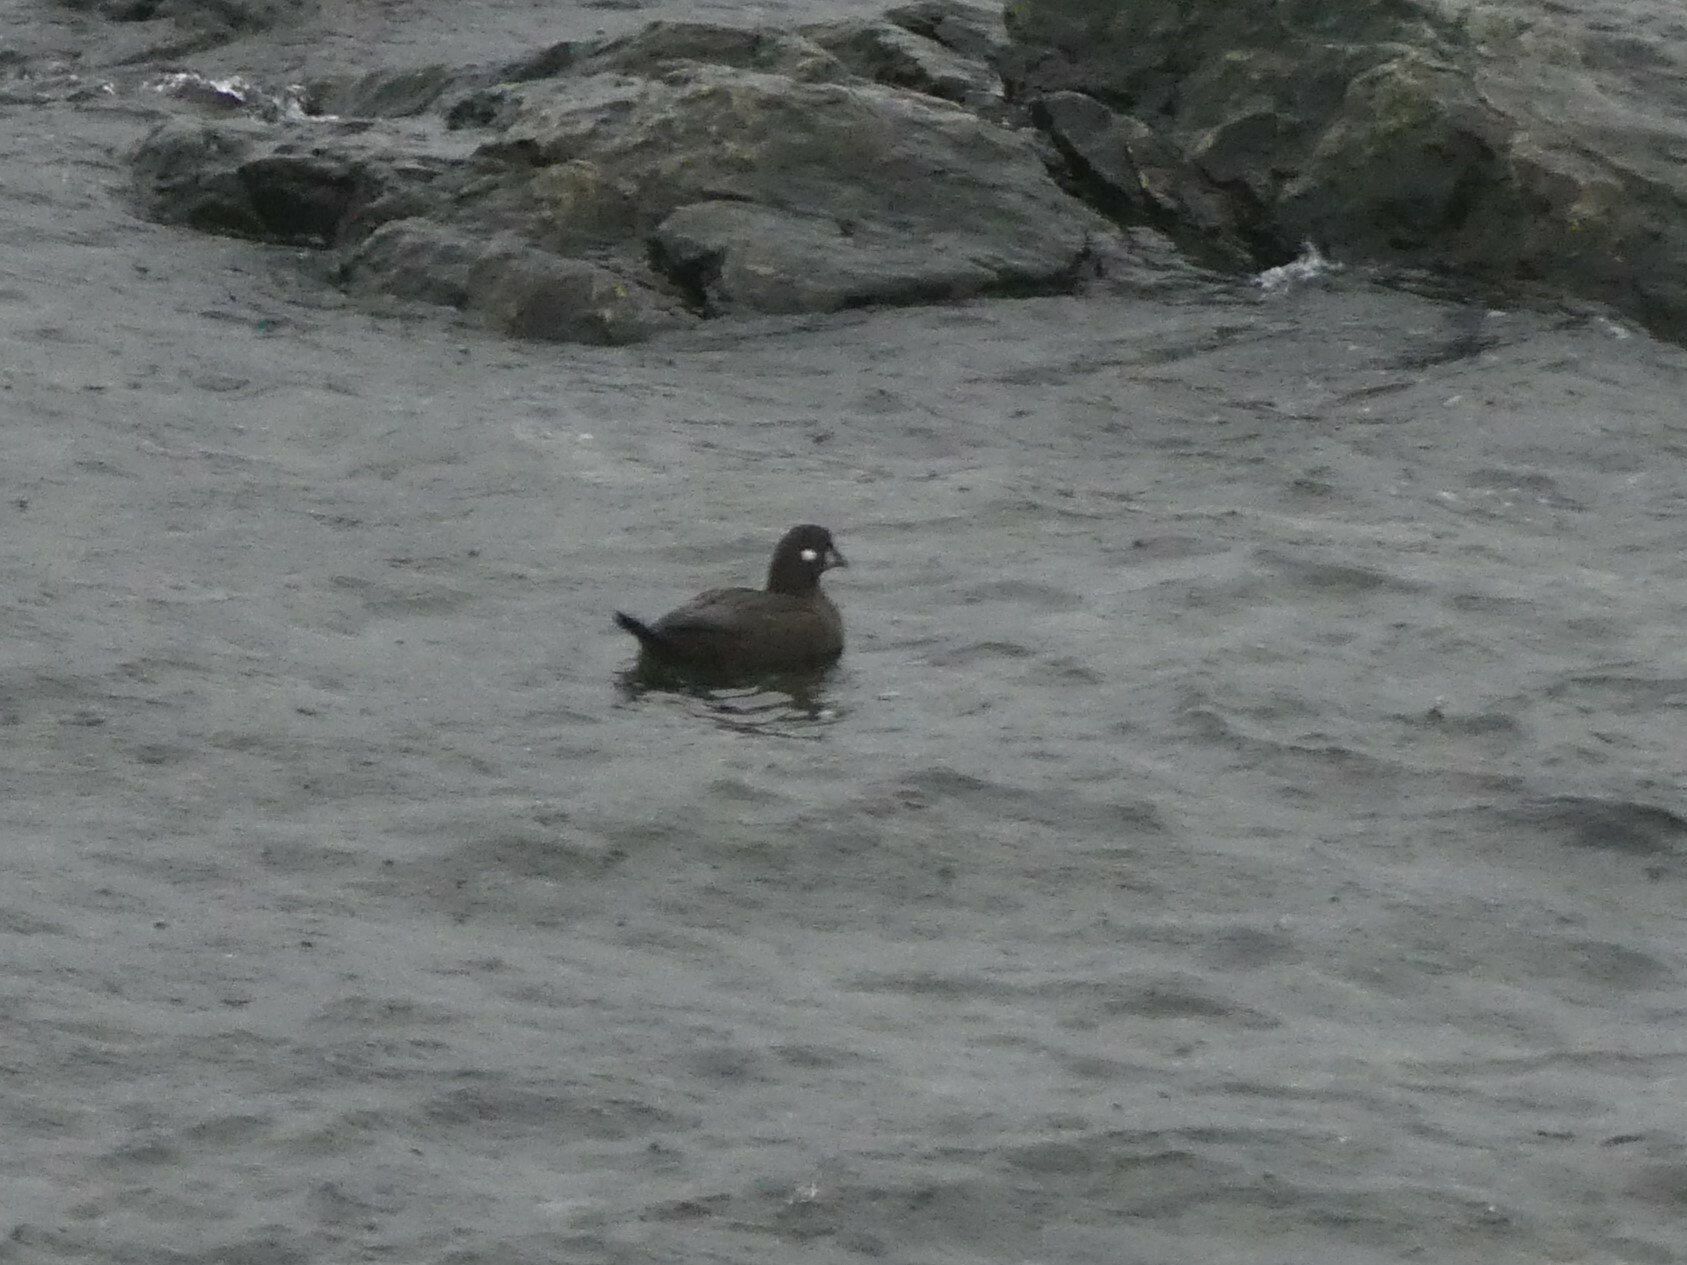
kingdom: Animalia
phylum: Chordata
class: Aves
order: Anseriformes
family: Anatidae
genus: Histrionicus
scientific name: Histrionicus histrionicus
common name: Harlequin duck
